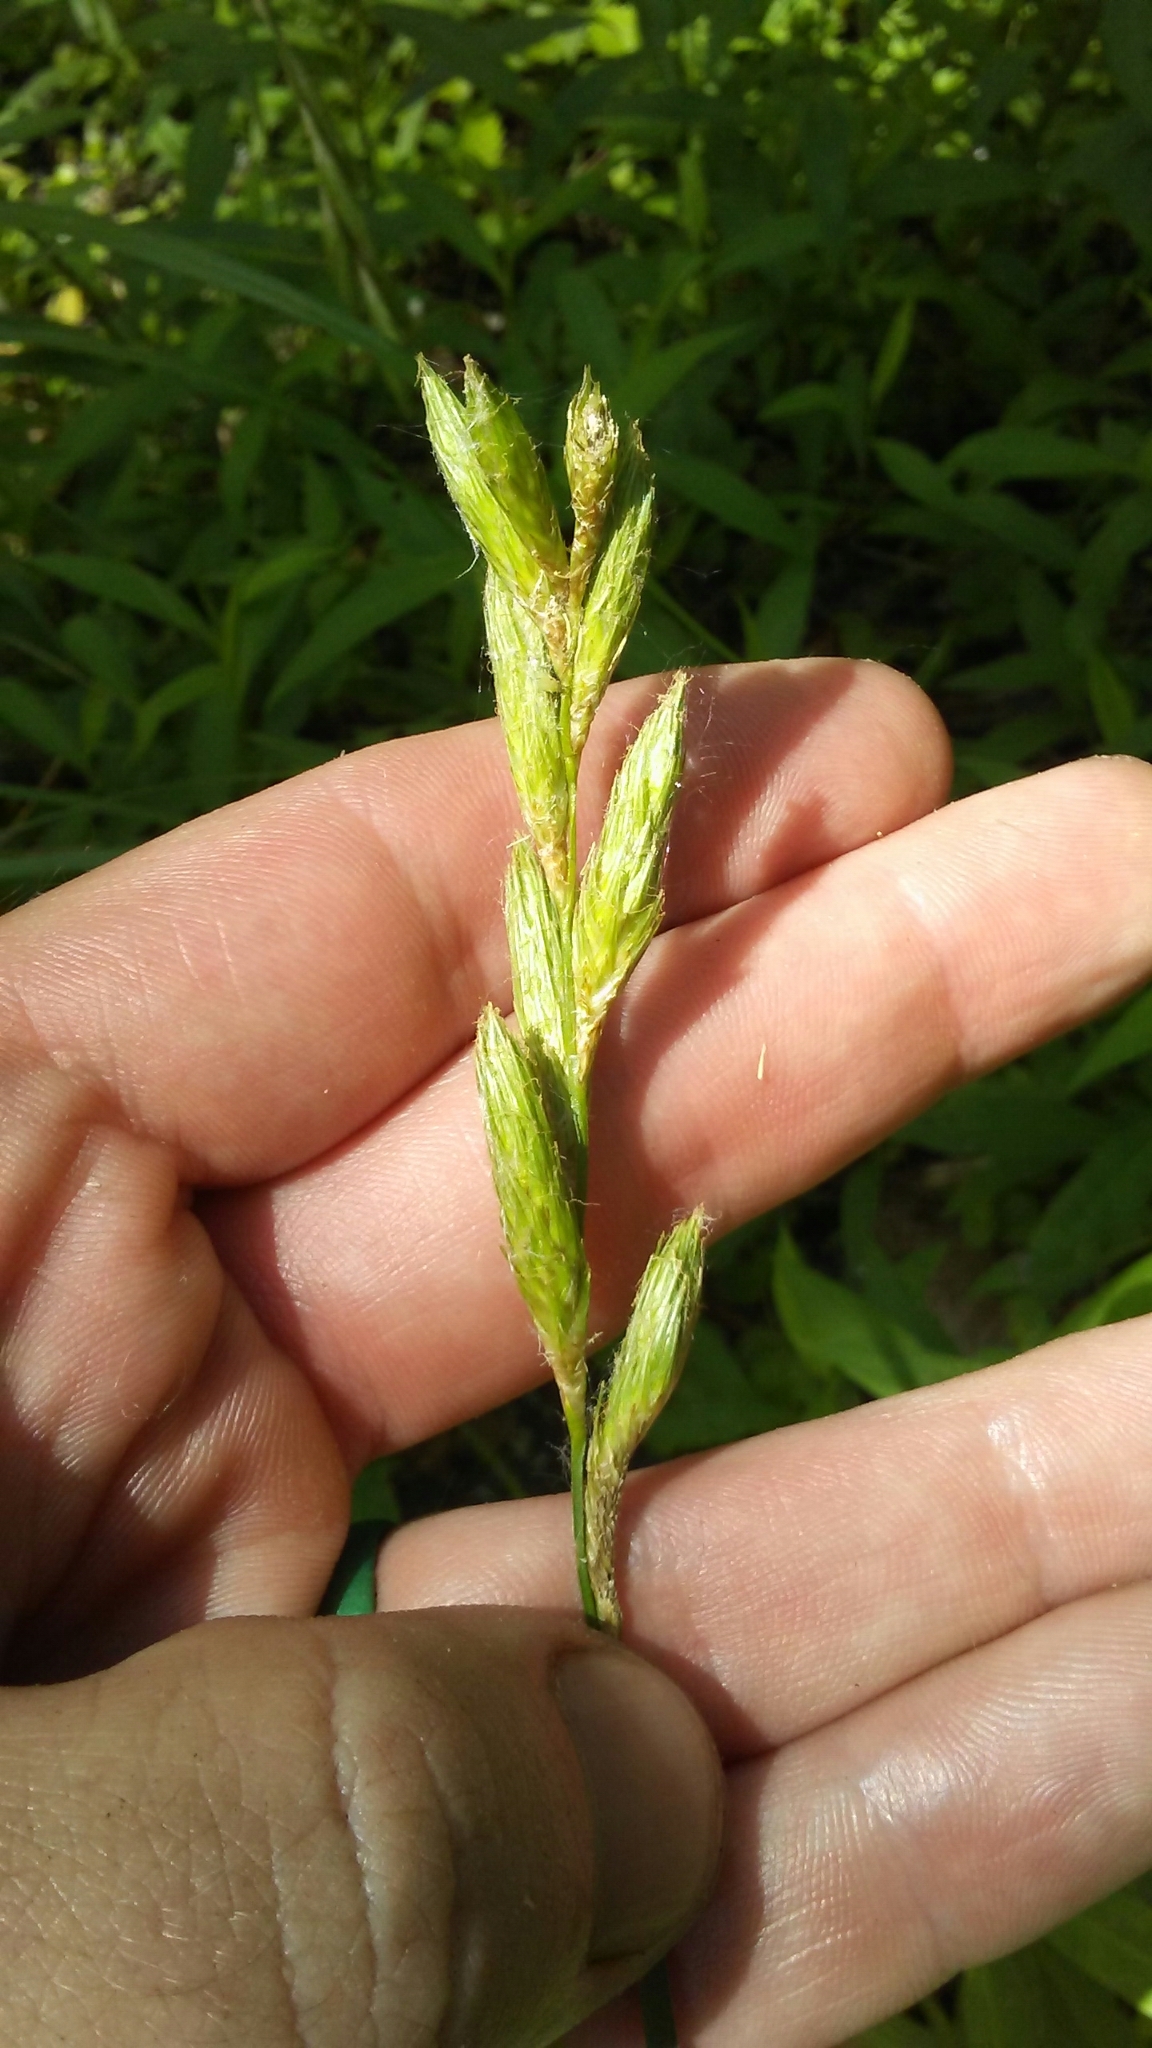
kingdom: Plantae
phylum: Tracheophyta
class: Liliopsida
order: Poales
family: Cyperaceae
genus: Carex
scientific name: Carex muskingumensis
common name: Muskingum sedge
